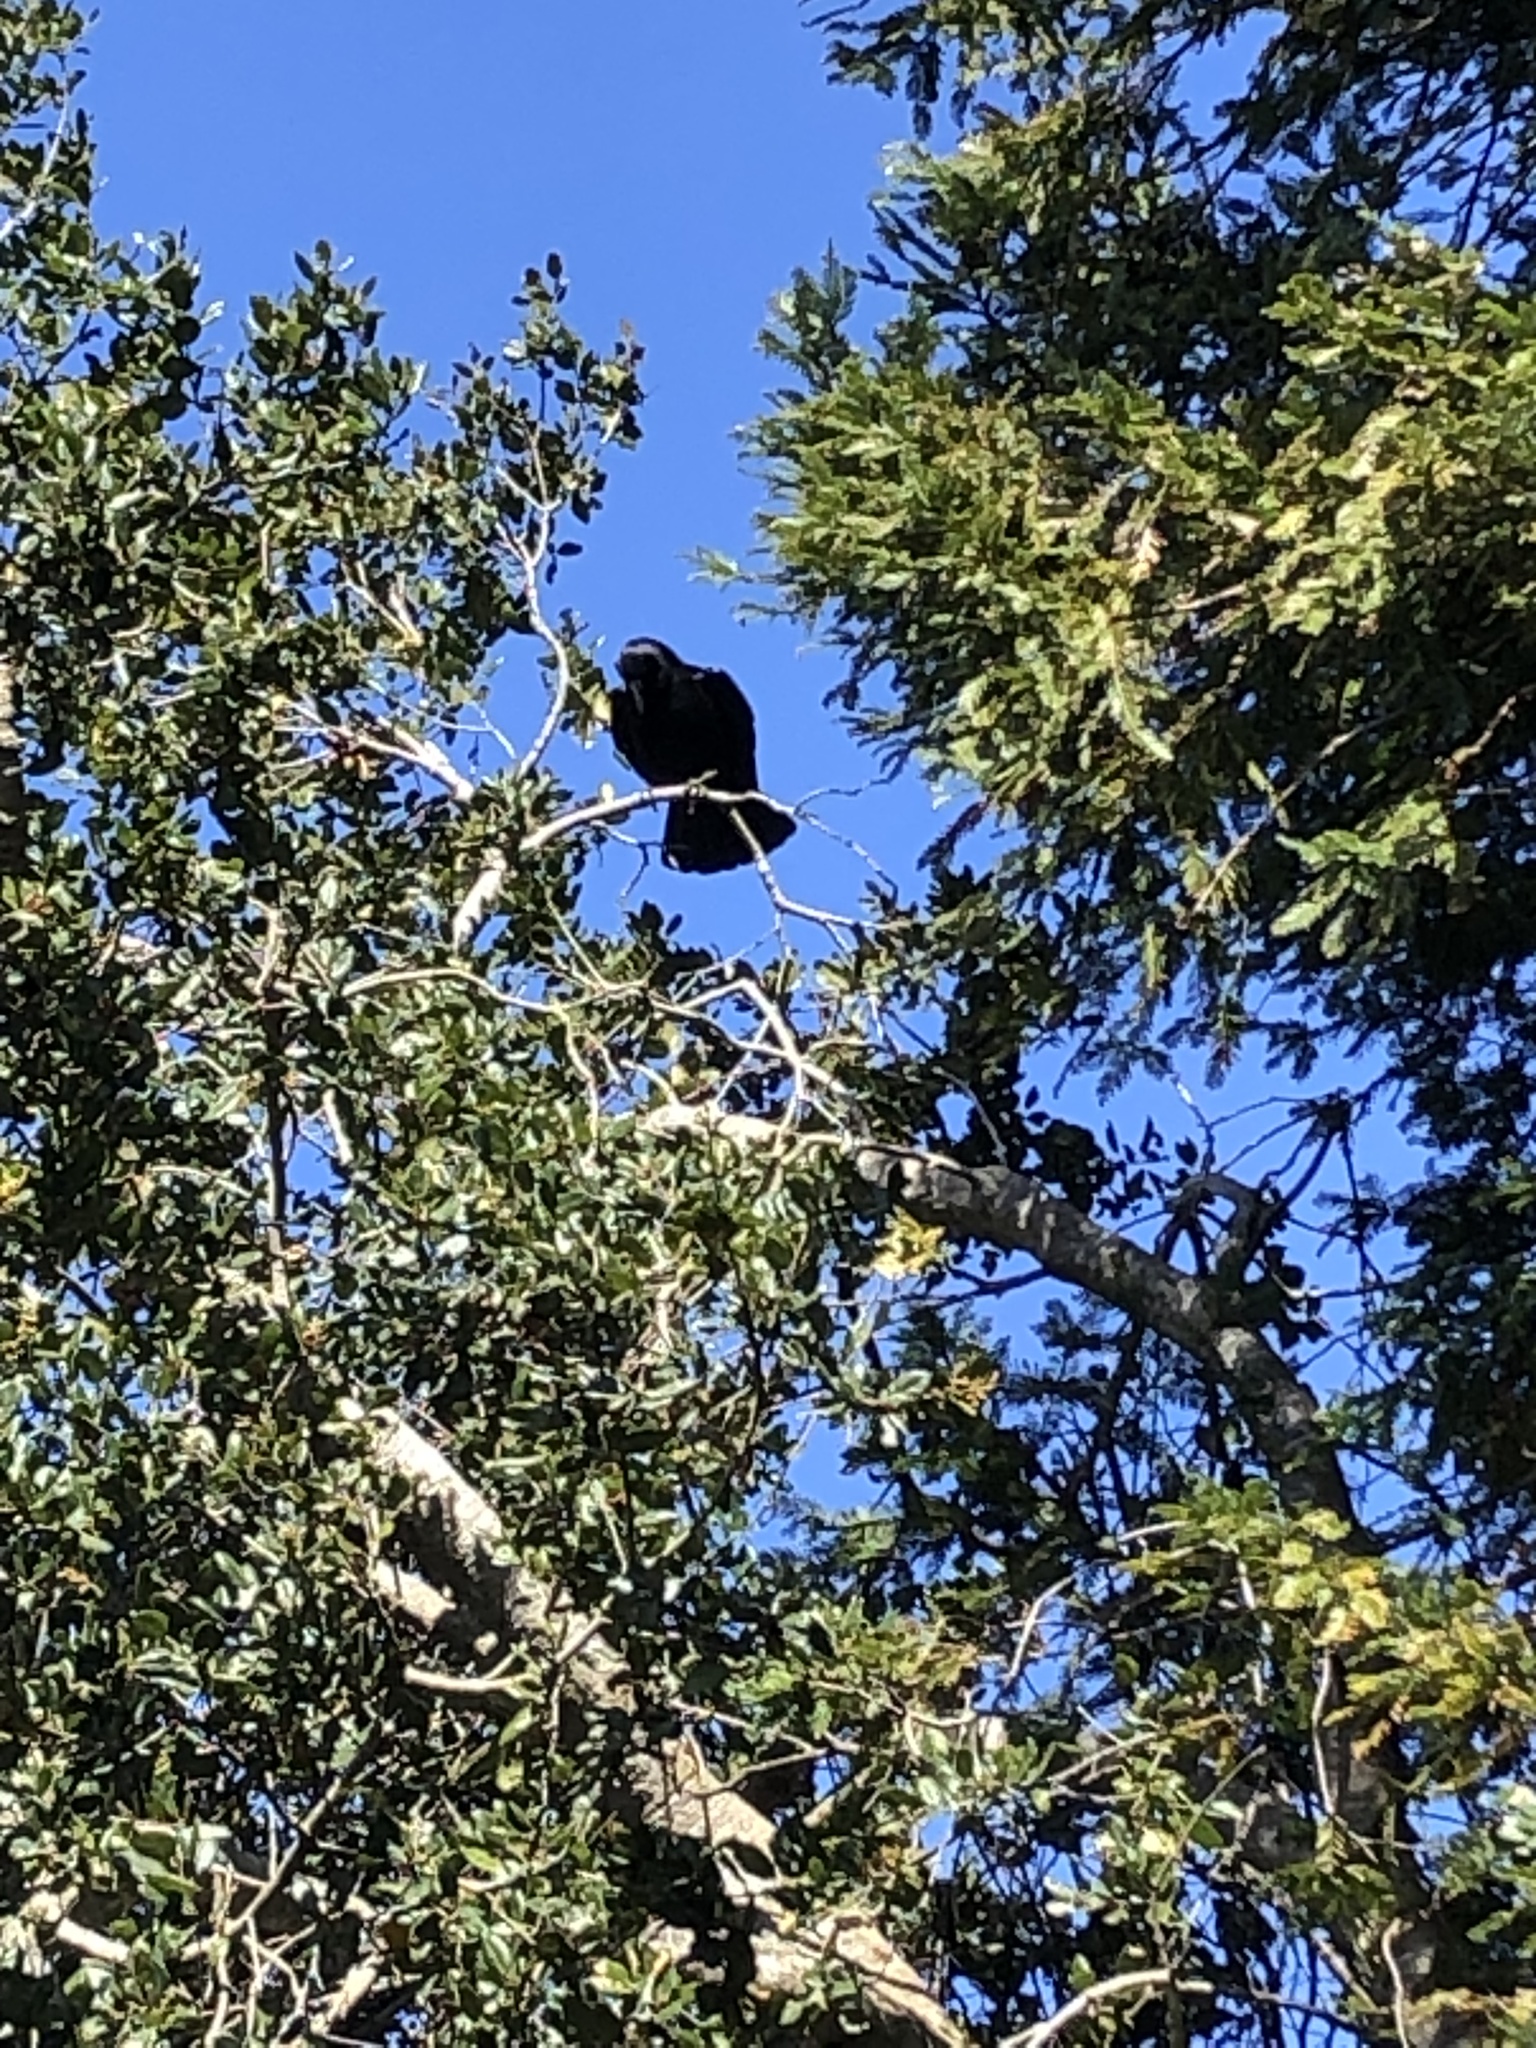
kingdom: Animalia
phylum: Chordata
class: Aves
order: Passeriformes
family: Corvidae
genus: Corvus
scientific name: Corvus brachyrhynchos
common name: American crow
